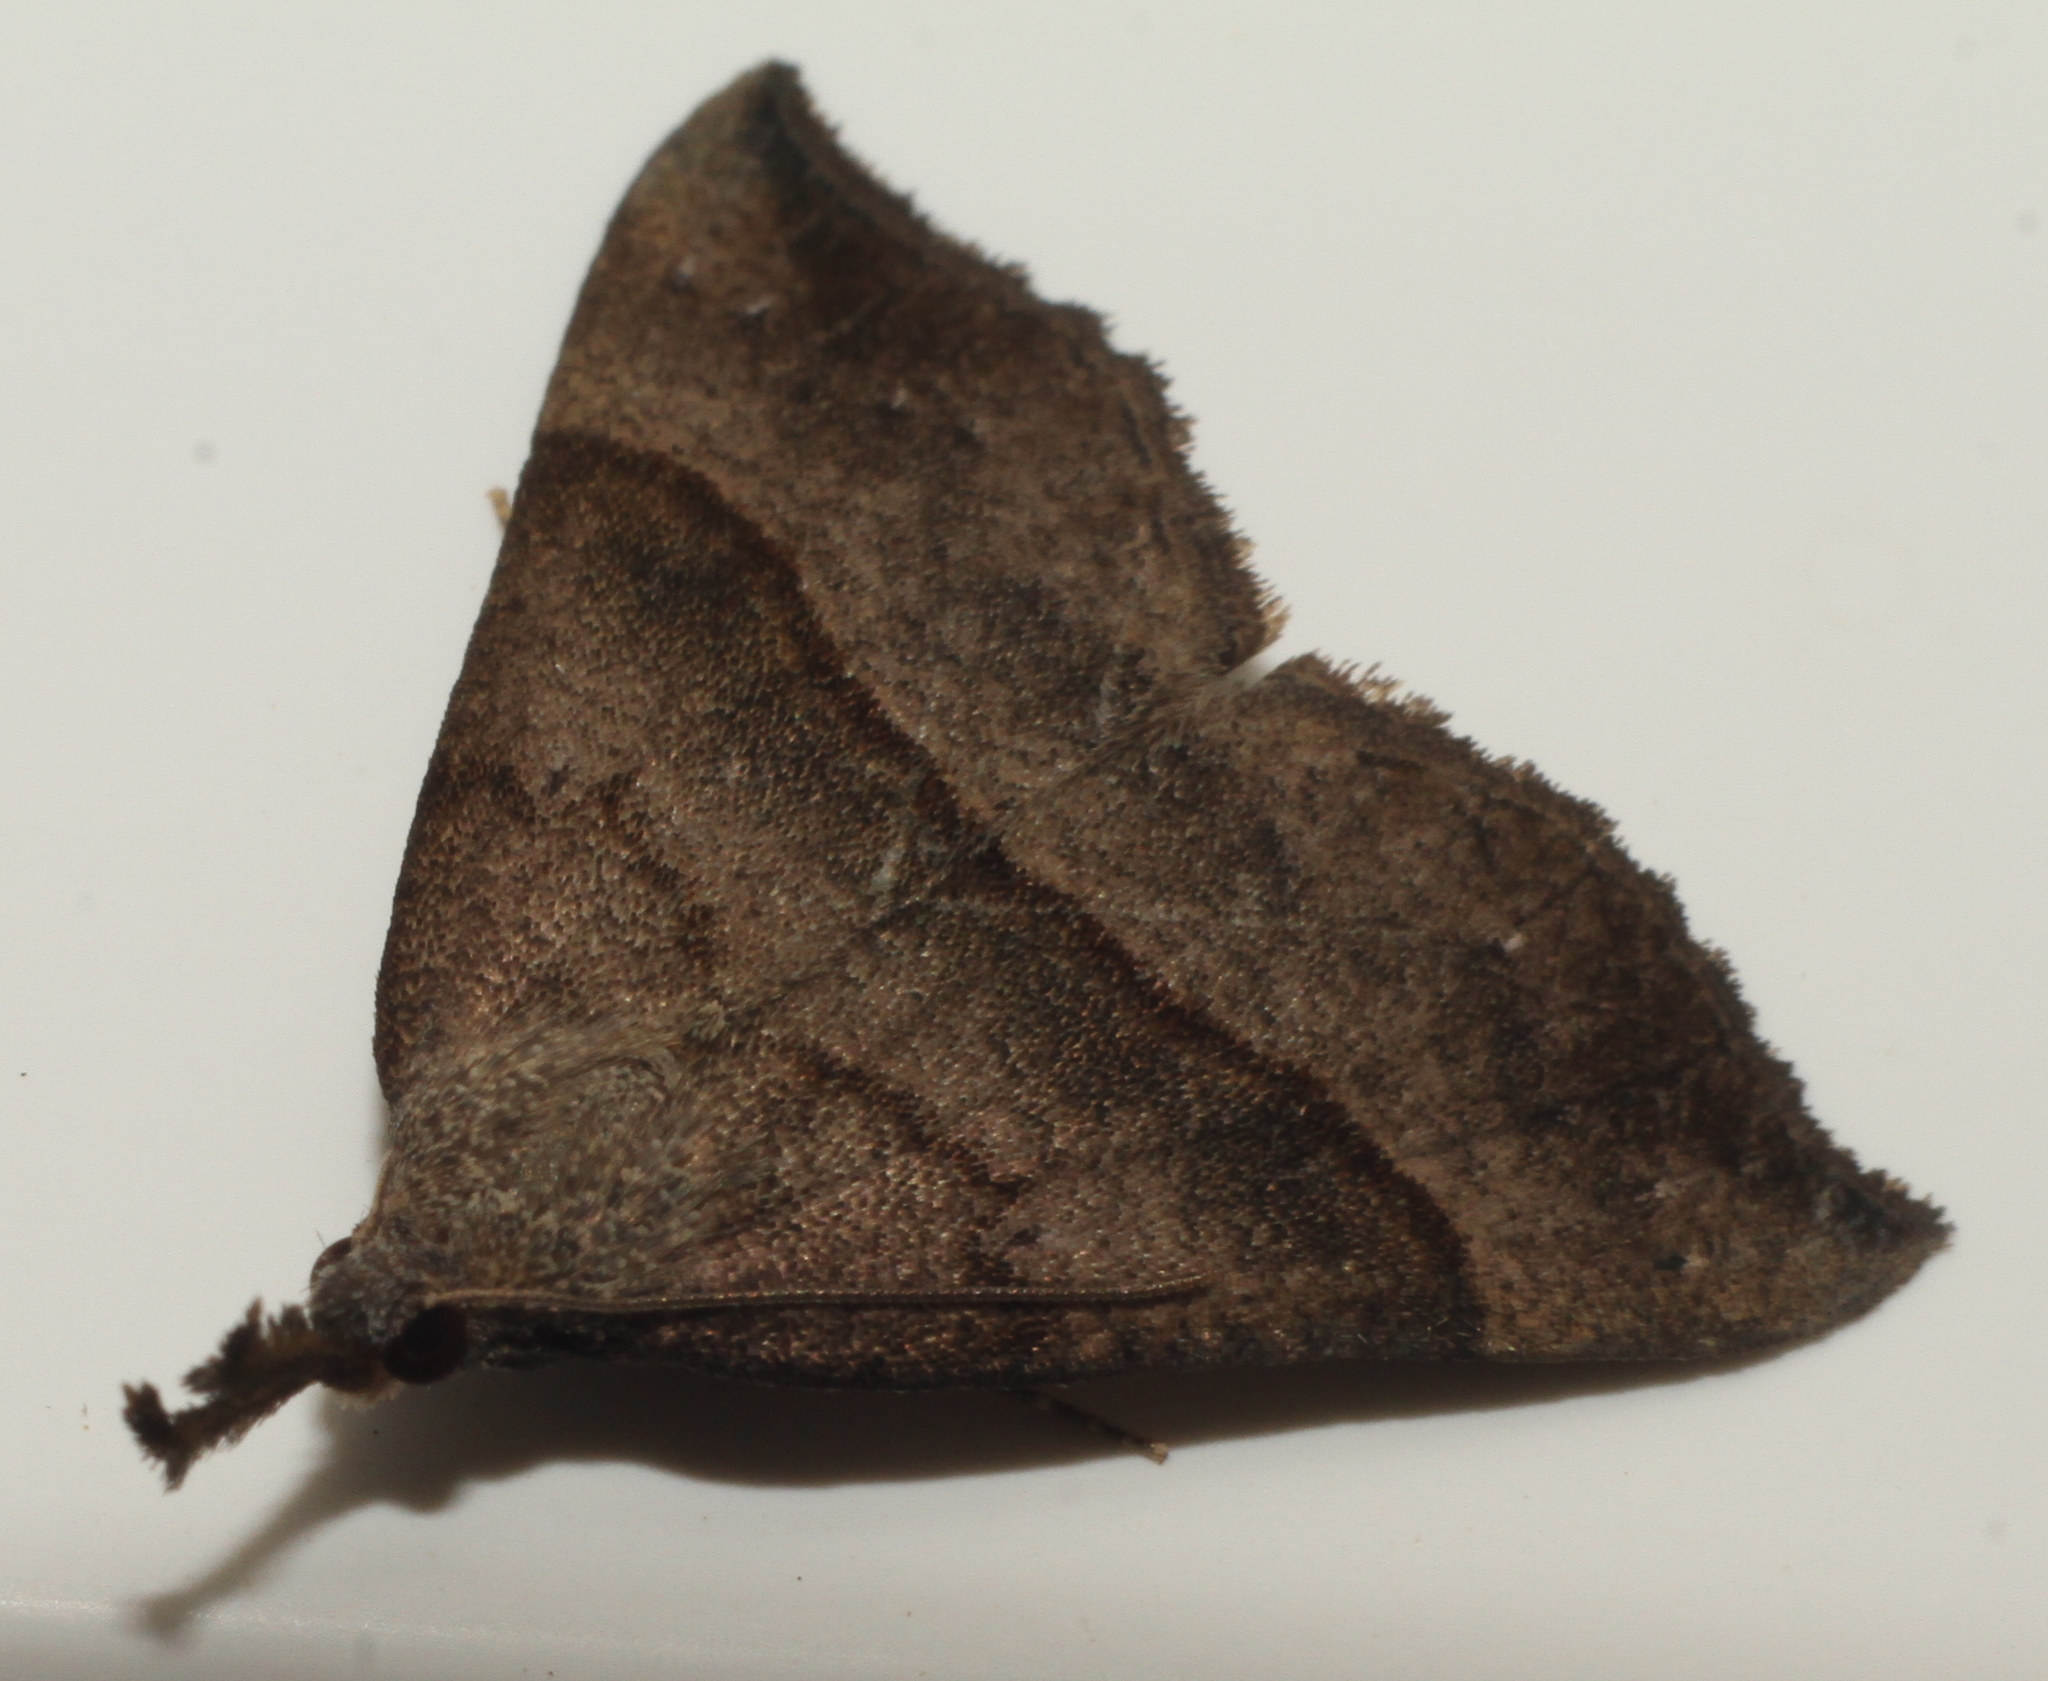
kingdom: Animalia
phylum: Arthropoda
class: Insecta
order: Lepidoptera
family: Erebidae
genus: Hypena
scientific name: Hypena proboscidalis
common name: Snout
